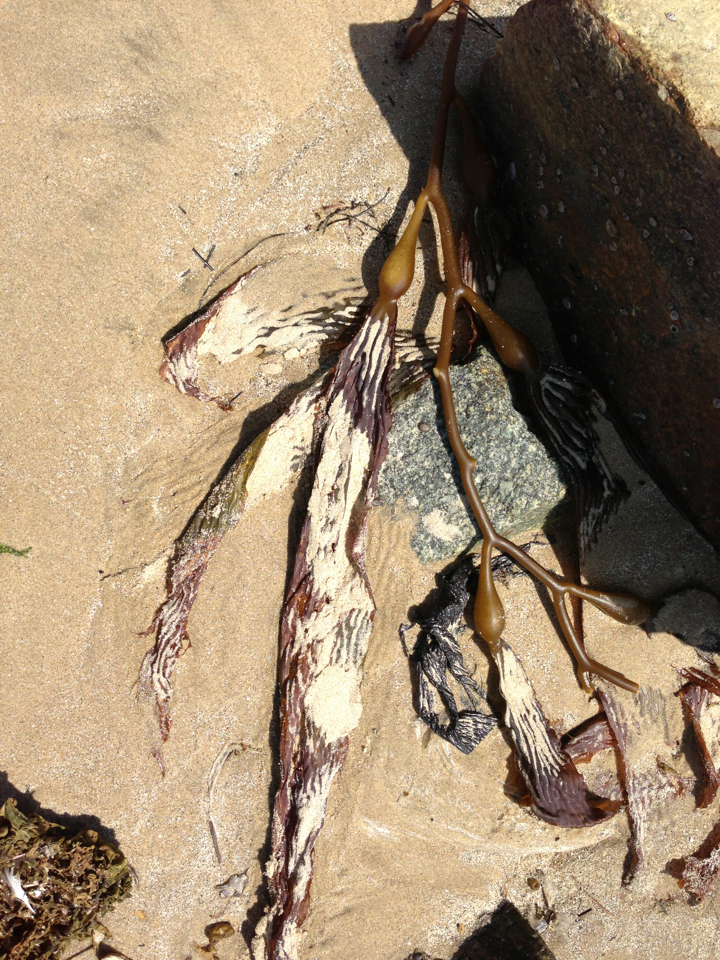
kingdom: Chromista
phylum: Ochrophyta
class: Phaeophyceae
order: Laminariales
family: Laminariaceae
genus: Macrocystis
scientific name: Macrocystis pyrifera
